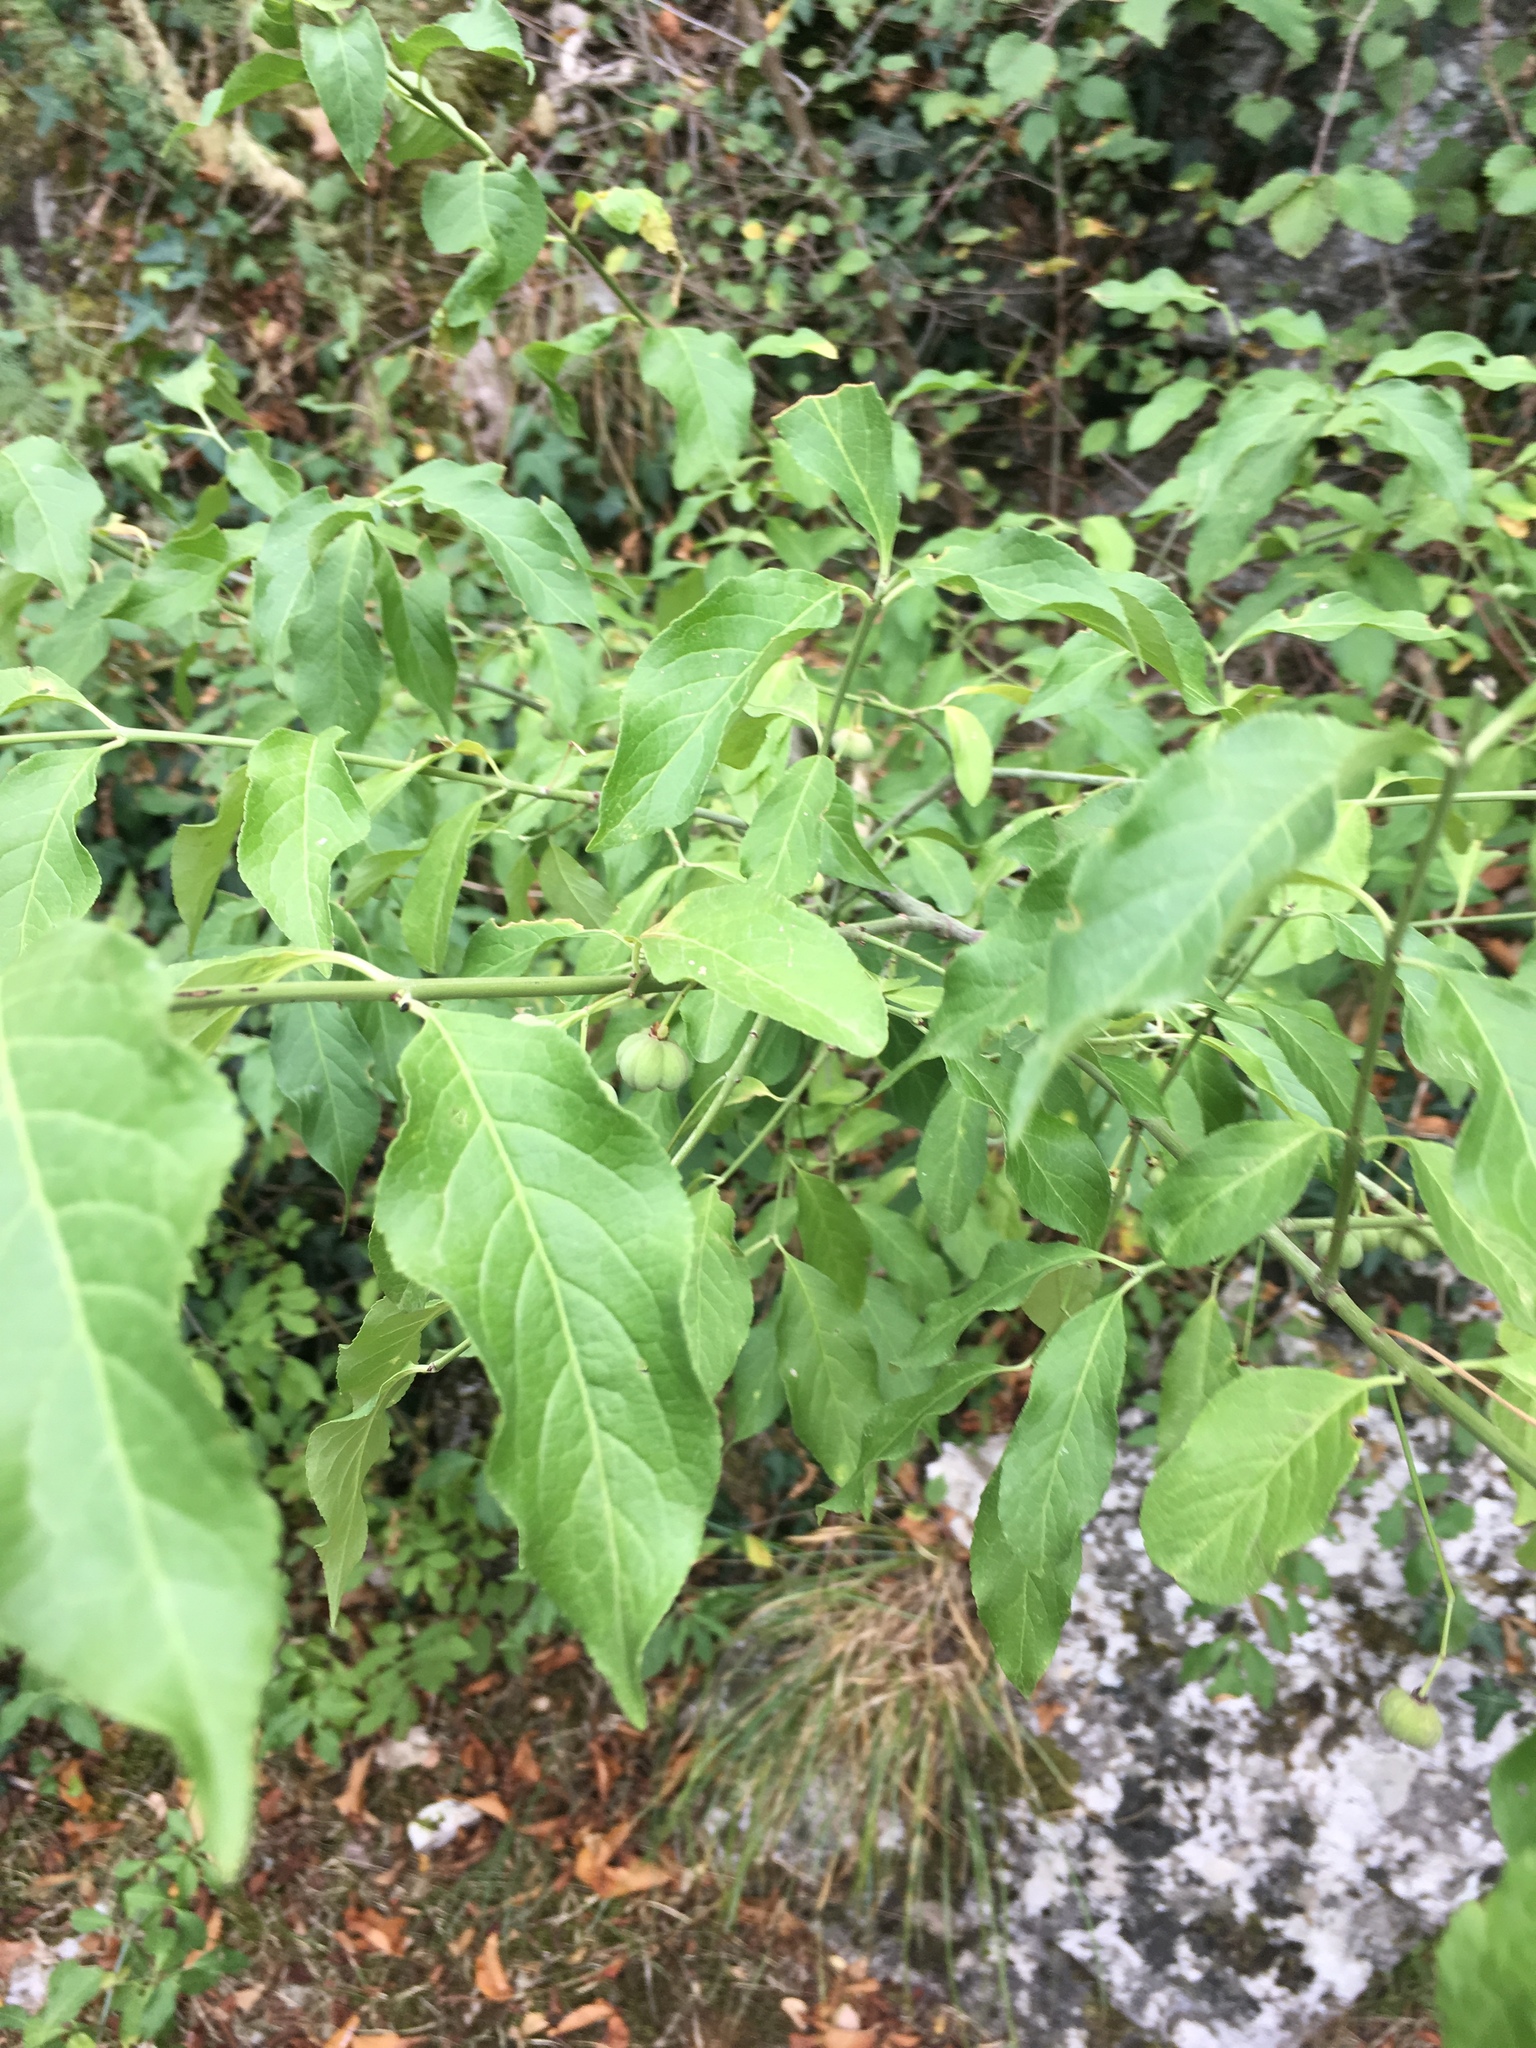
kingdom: Plantae
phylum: Tracheophyta
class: Magnoliopsida
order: Celastrales
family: Celastraceae
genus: Euonymus
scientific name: Euonymus europaeus
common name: Spindle
